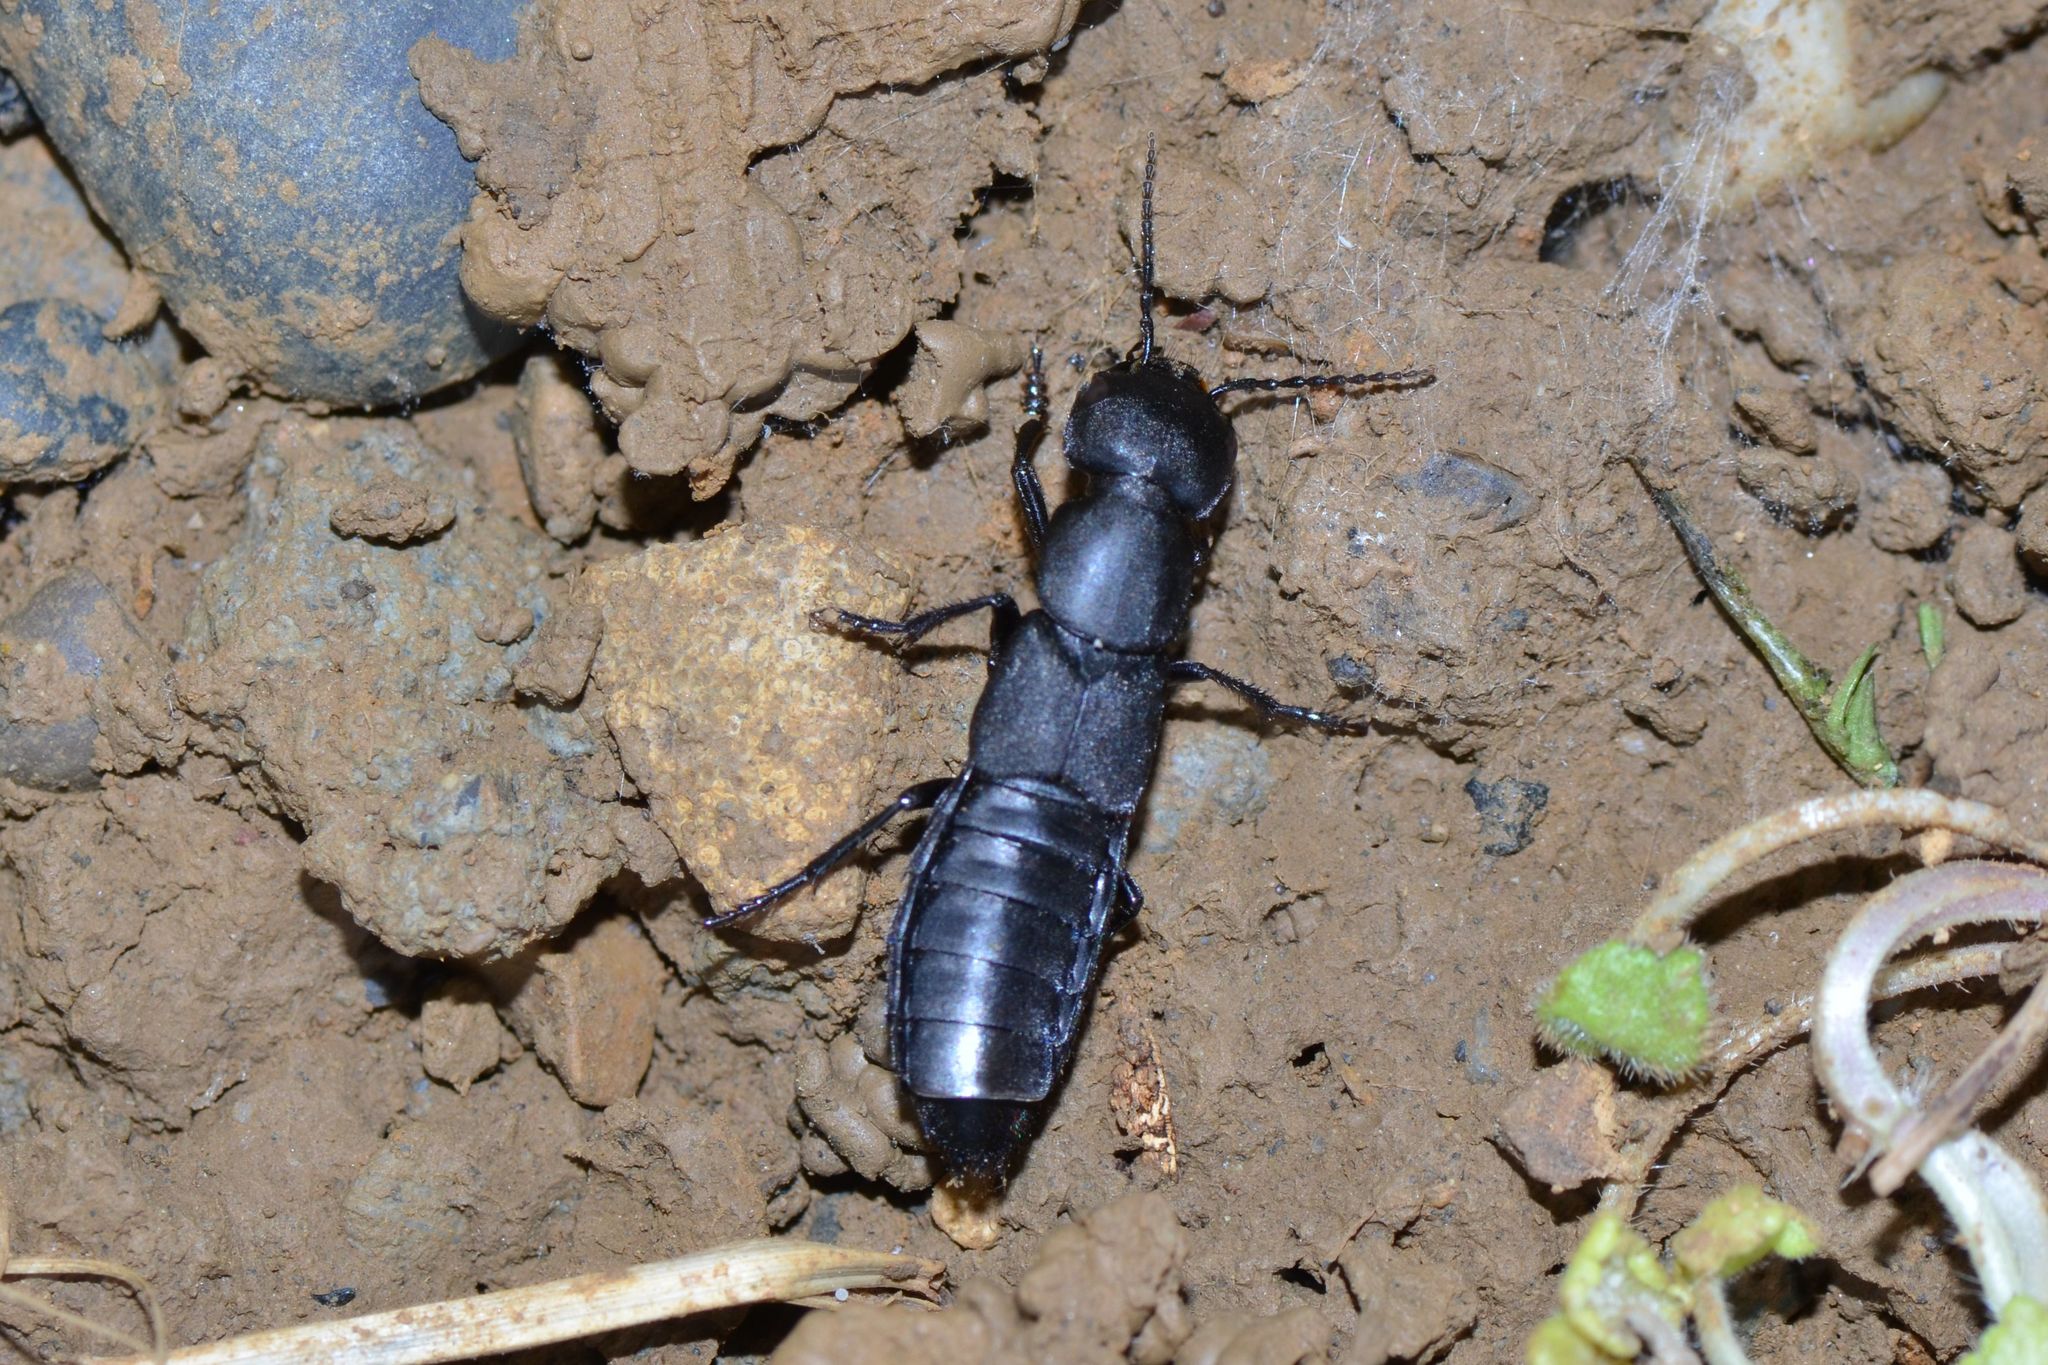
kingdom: Animalia
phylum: Arthropoda
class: Insecta
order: Coleoptera
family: Staphylinidae
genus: Ocypus
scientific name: Ocypus olens
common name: Devil's coach-horse
